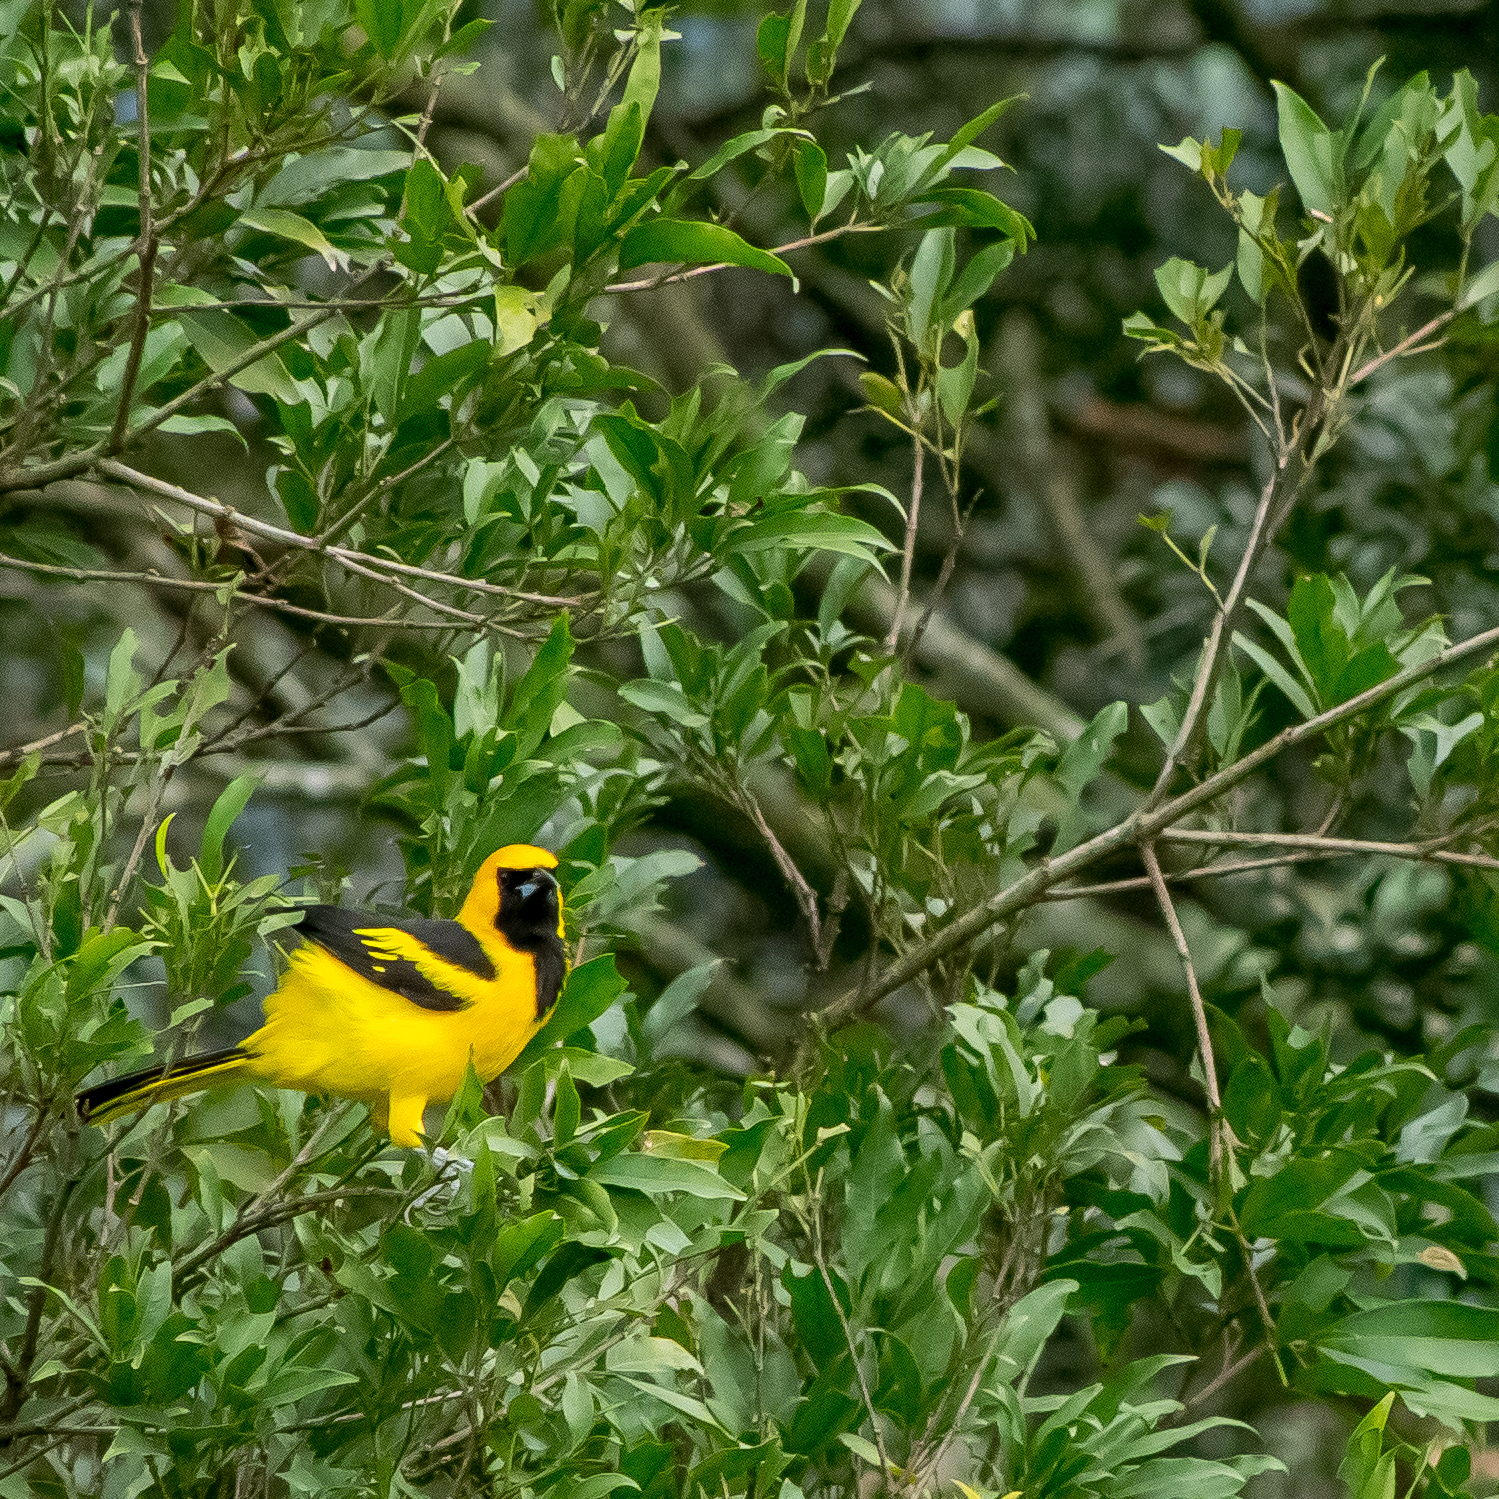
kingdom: Animalia
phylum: Chordata
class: Aves
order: Passeriformes
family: Icteridae
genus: Icterus
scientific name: Icterus mesomelas
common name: Yellow-tailed oriole
